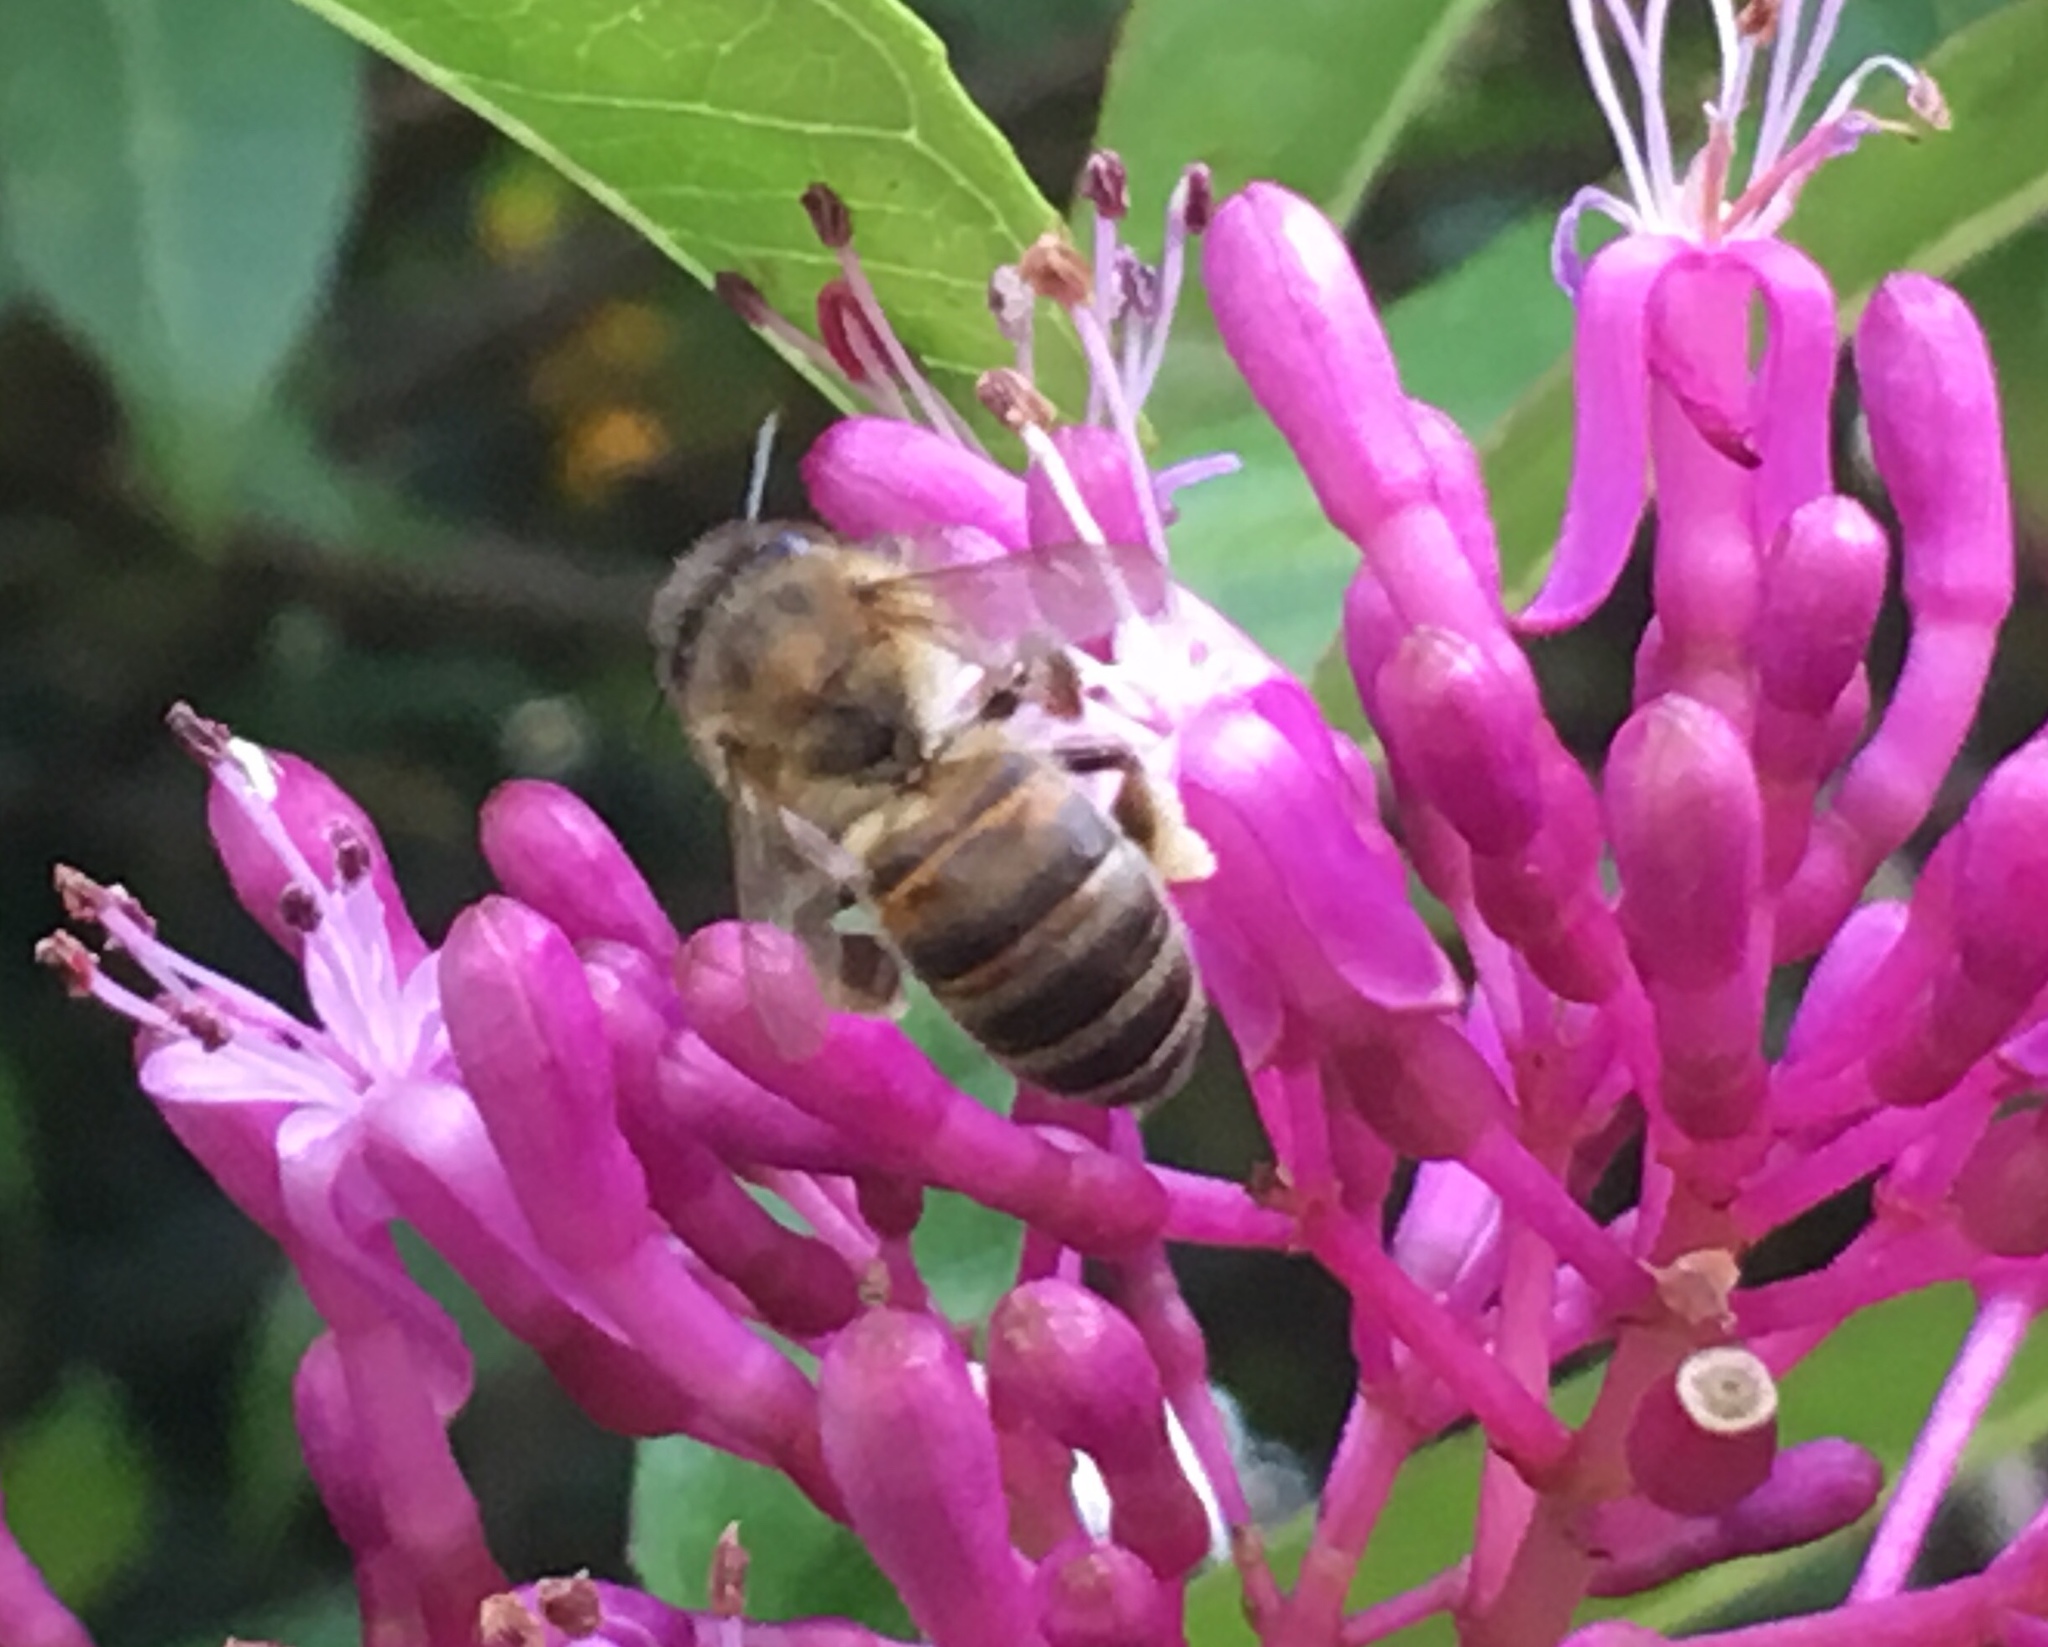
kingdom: Animalia
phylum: Arthropoda
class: Insecta
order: Hymenoptera
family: Apidae
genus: Apis
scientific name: Apis mellifera
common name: Honey bee
